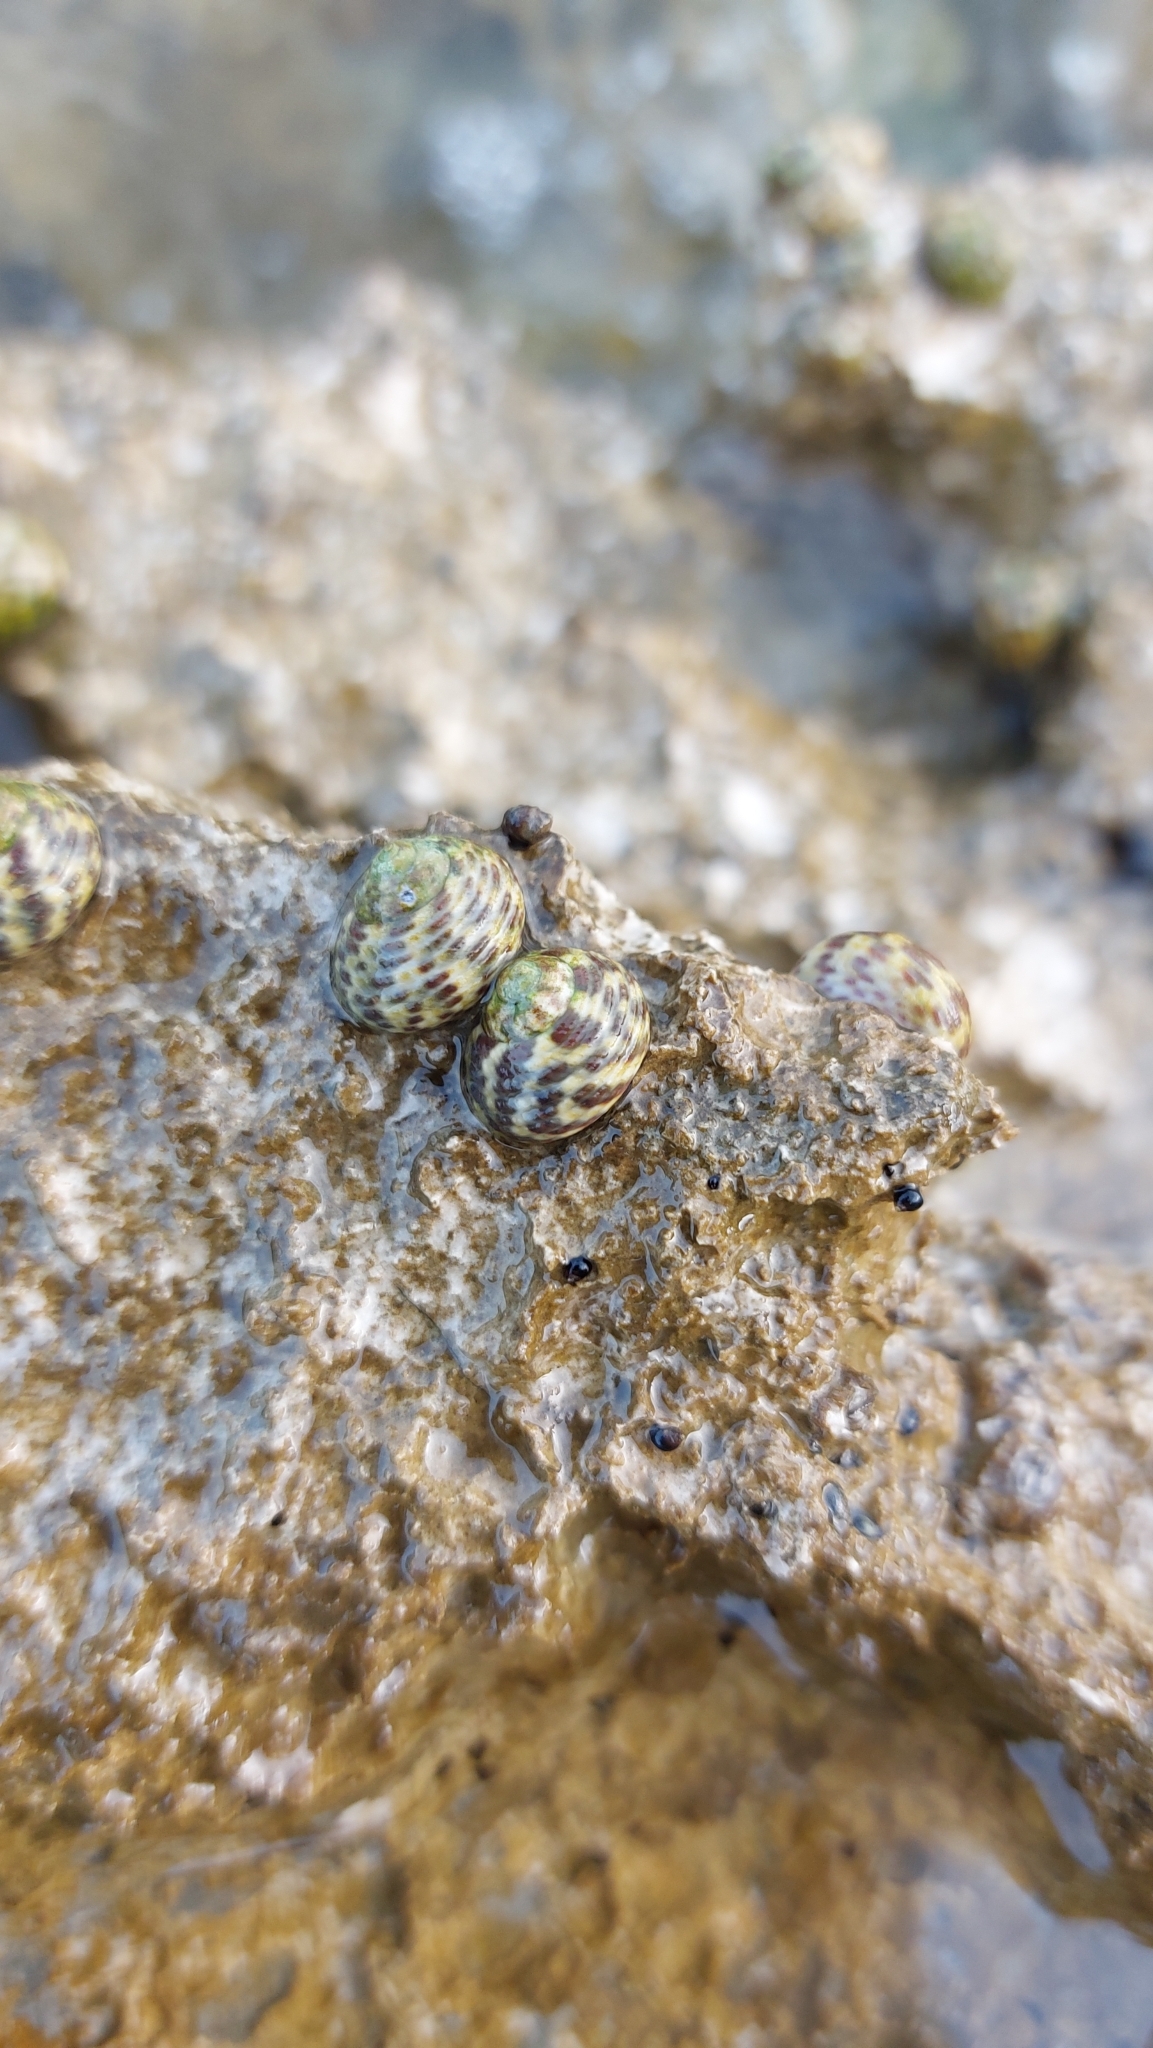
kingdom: Animalia
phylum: Mollusca
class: Gastropoda
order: Trochida
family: Trochidae
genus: Phorcus
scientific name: Phorcus turbinatus
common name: Turbinate monodont
